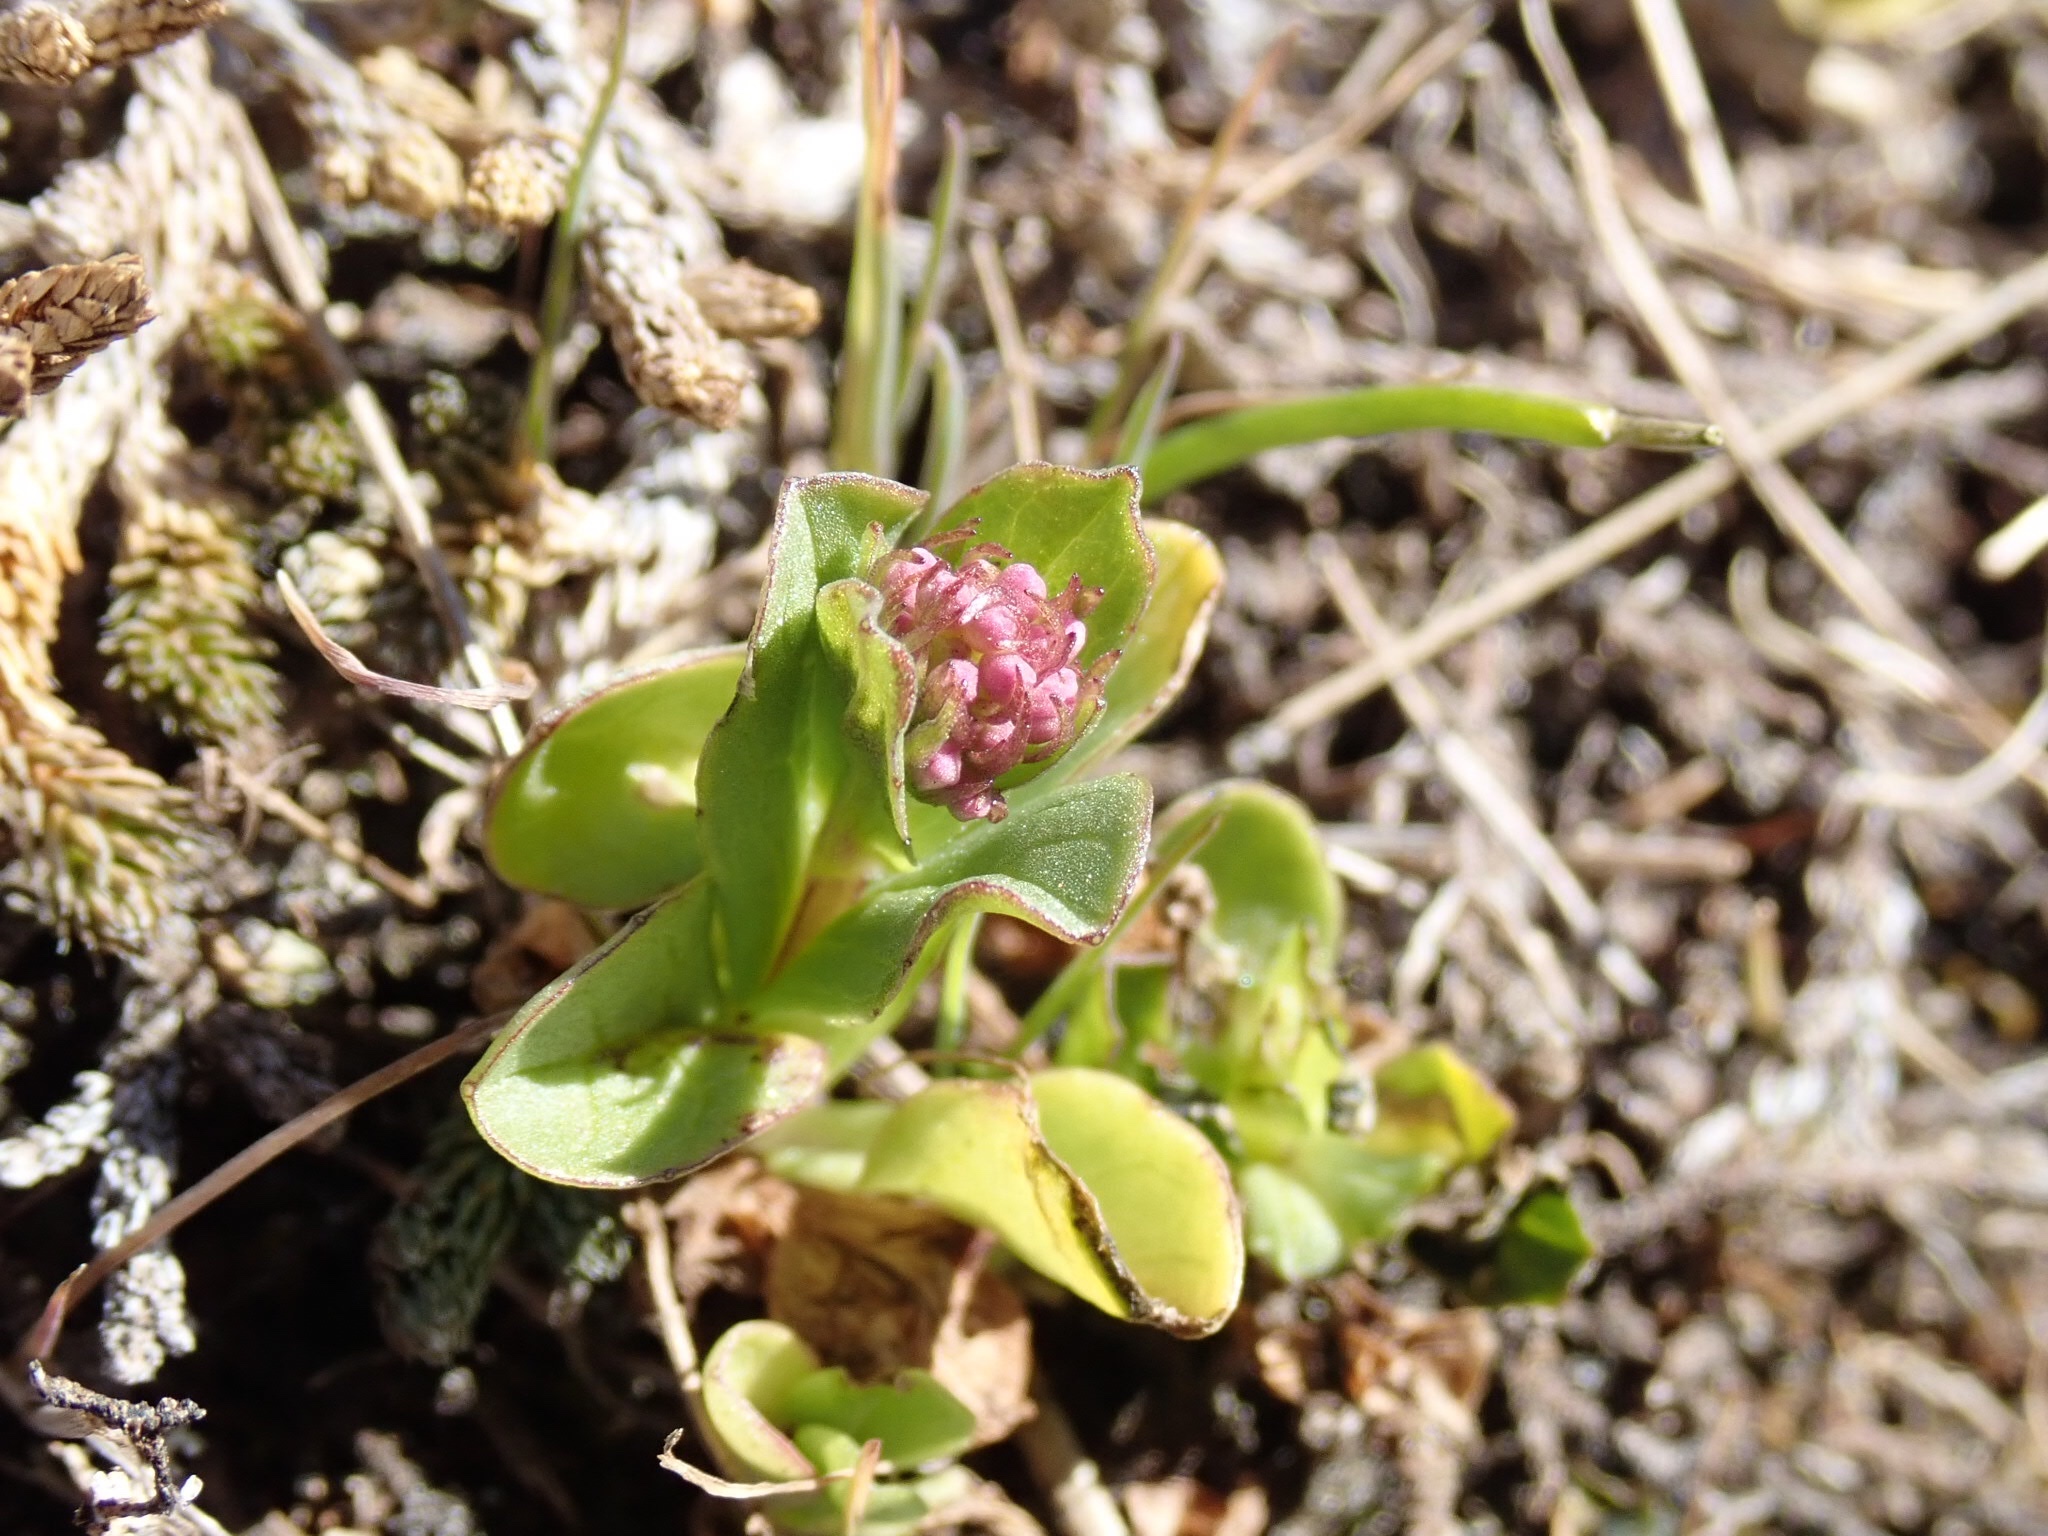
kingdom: Plantae
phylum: Tracheophyta
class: Magnoliopsida
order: Dipsacales
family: Caprifoliaceae
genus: Plectritis
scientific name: Plectritis congesta
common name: Pink plectritis
